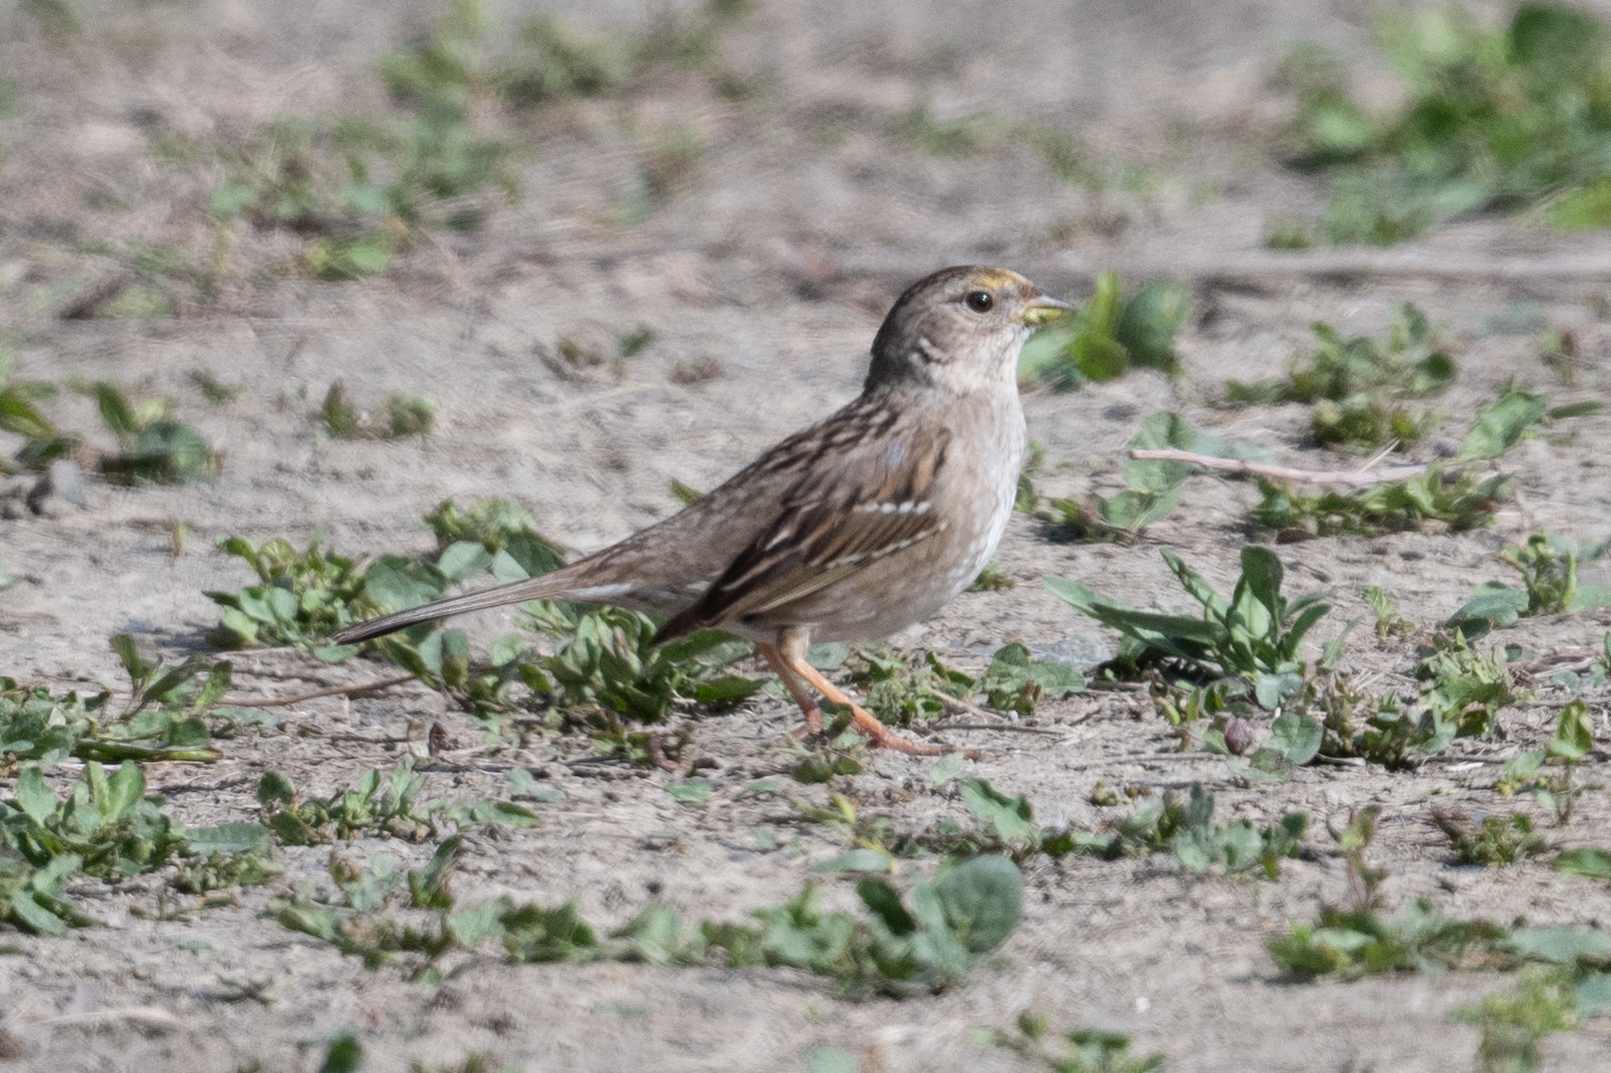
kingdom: Animalia
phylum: Chordata
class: Aves
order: Passeriformes
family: Passerellidae
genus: Zonotrichia
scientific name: Zonotrichia atricapilla
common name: Golden-crowned sparrow
